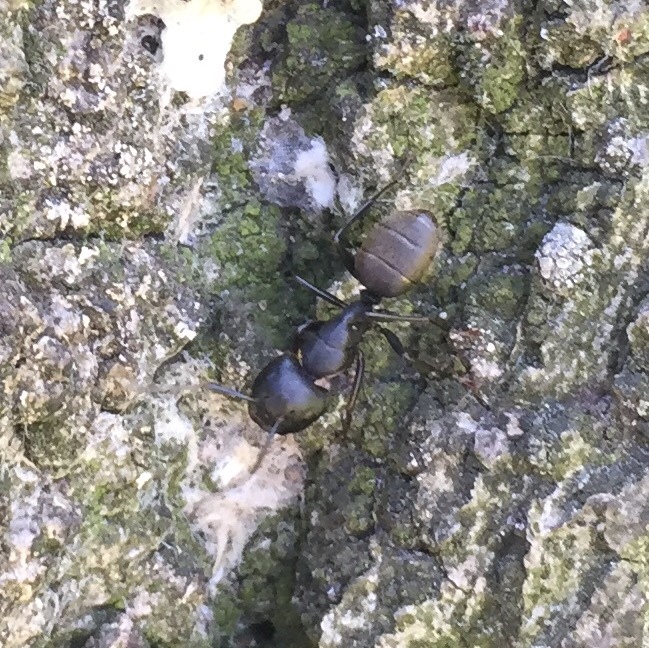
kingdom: Animalia
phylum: Arthropoda
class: Insecta
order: Hymenoptera
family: Formicidae
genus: Camponotus
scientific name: Camponotus pennsylvanicus
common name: Black carpenter ant
